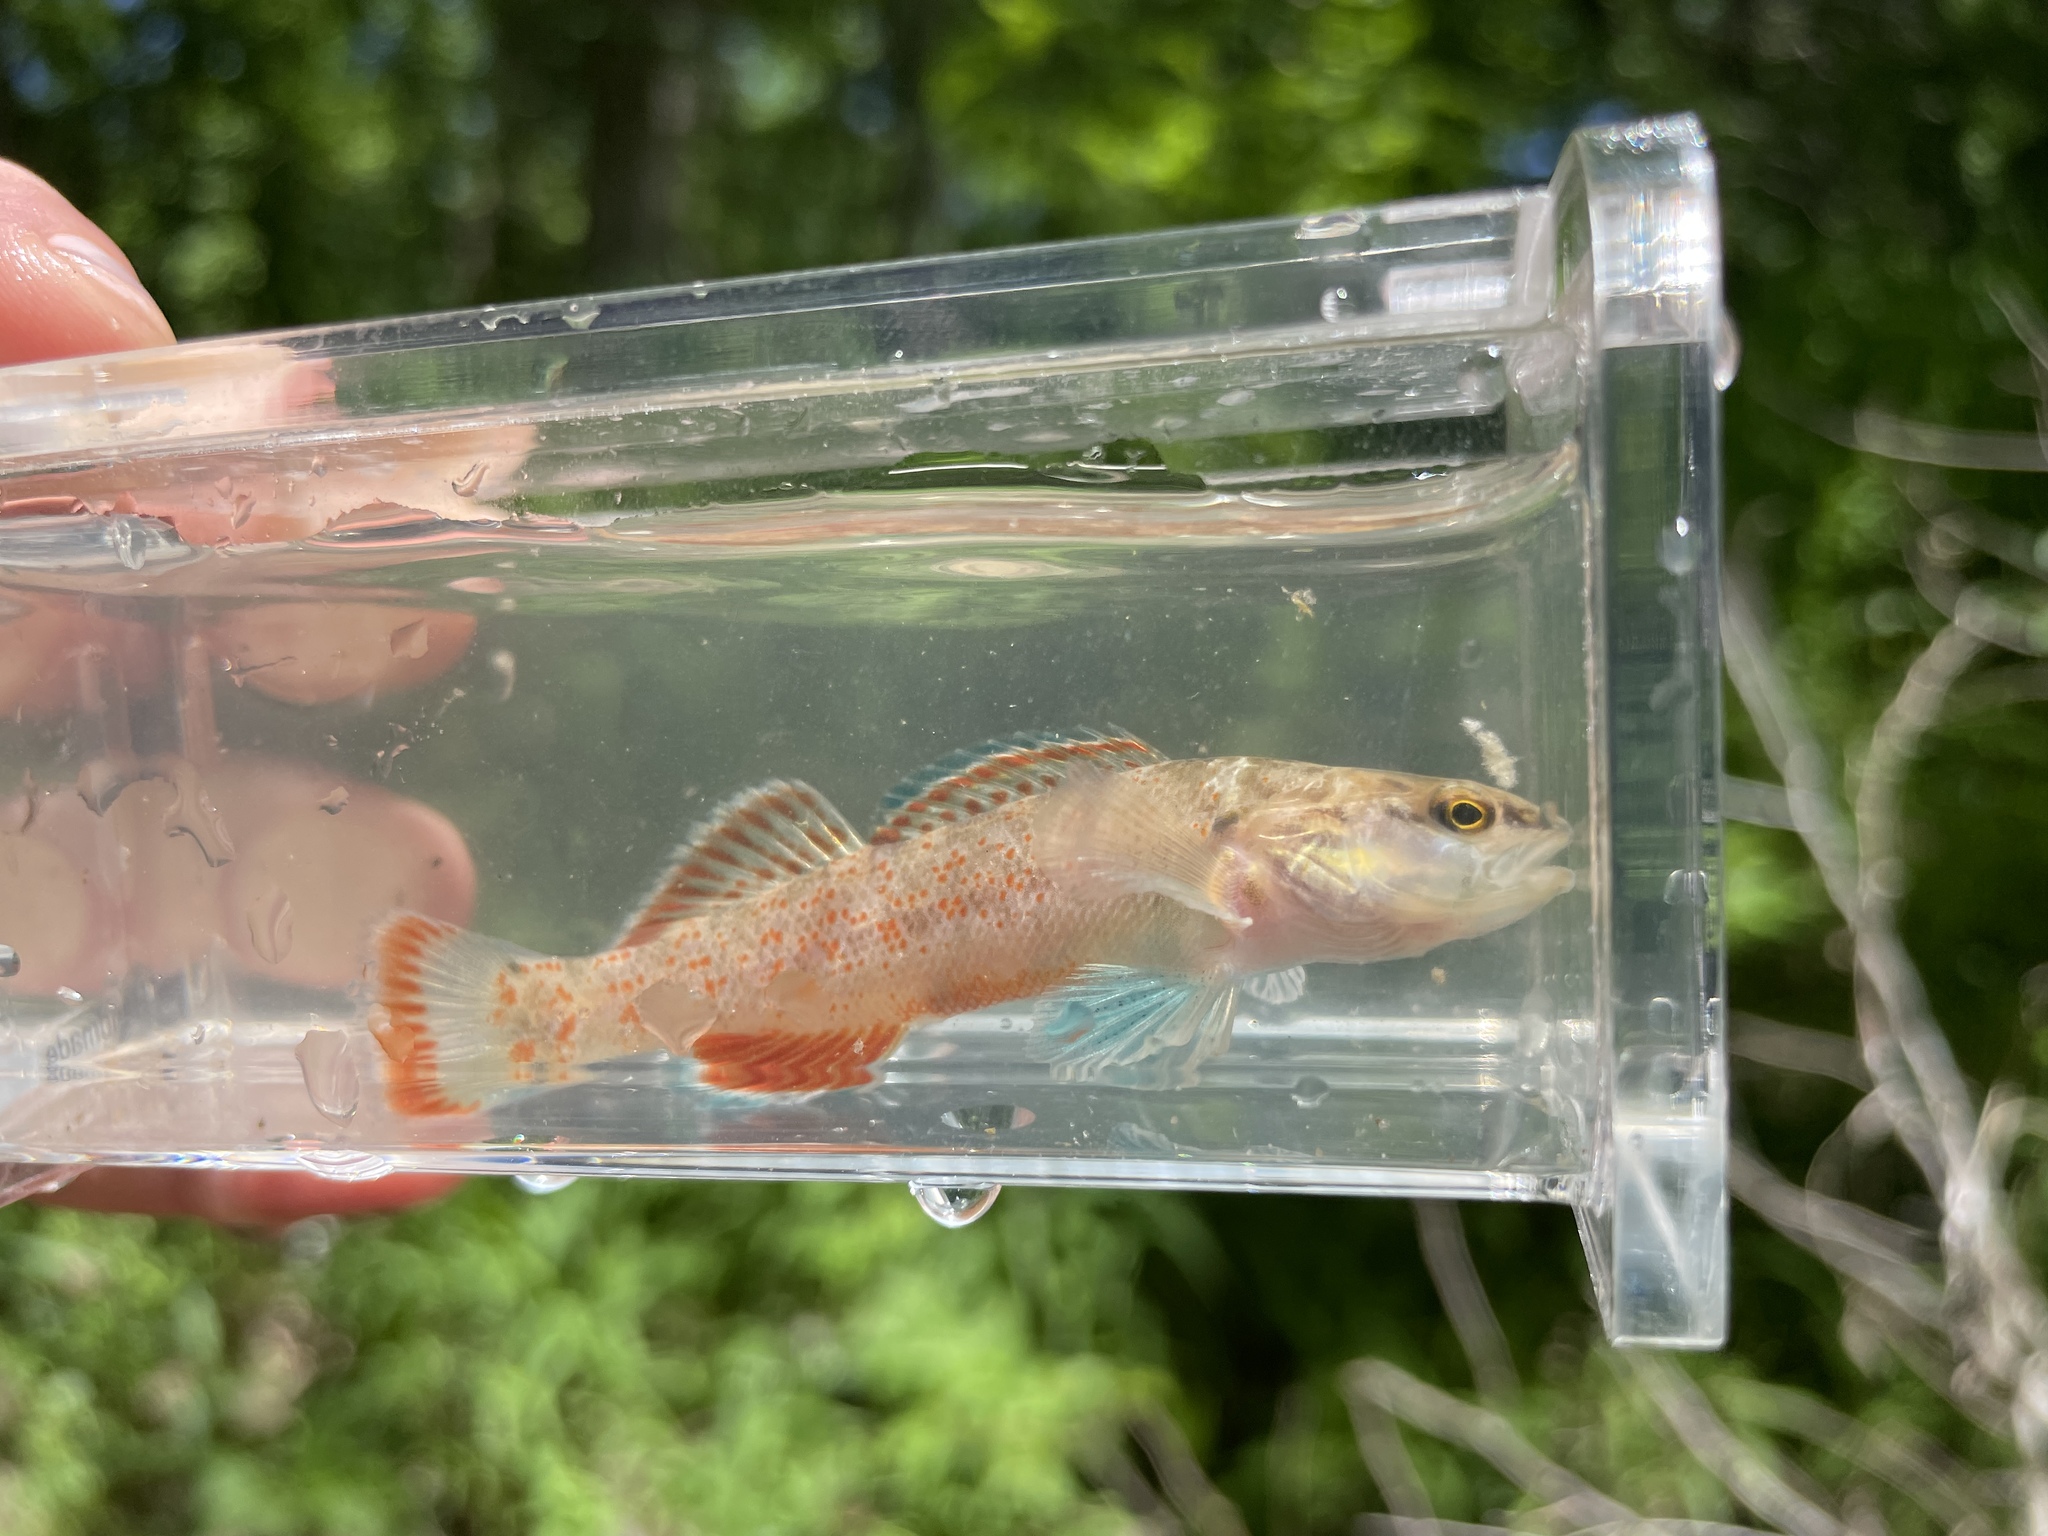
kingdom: Animalia
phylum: Chordata
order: Perciformes
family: Percidae
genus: Etheostoma
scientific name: Etheostoma artesiae
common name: Redspot darter
